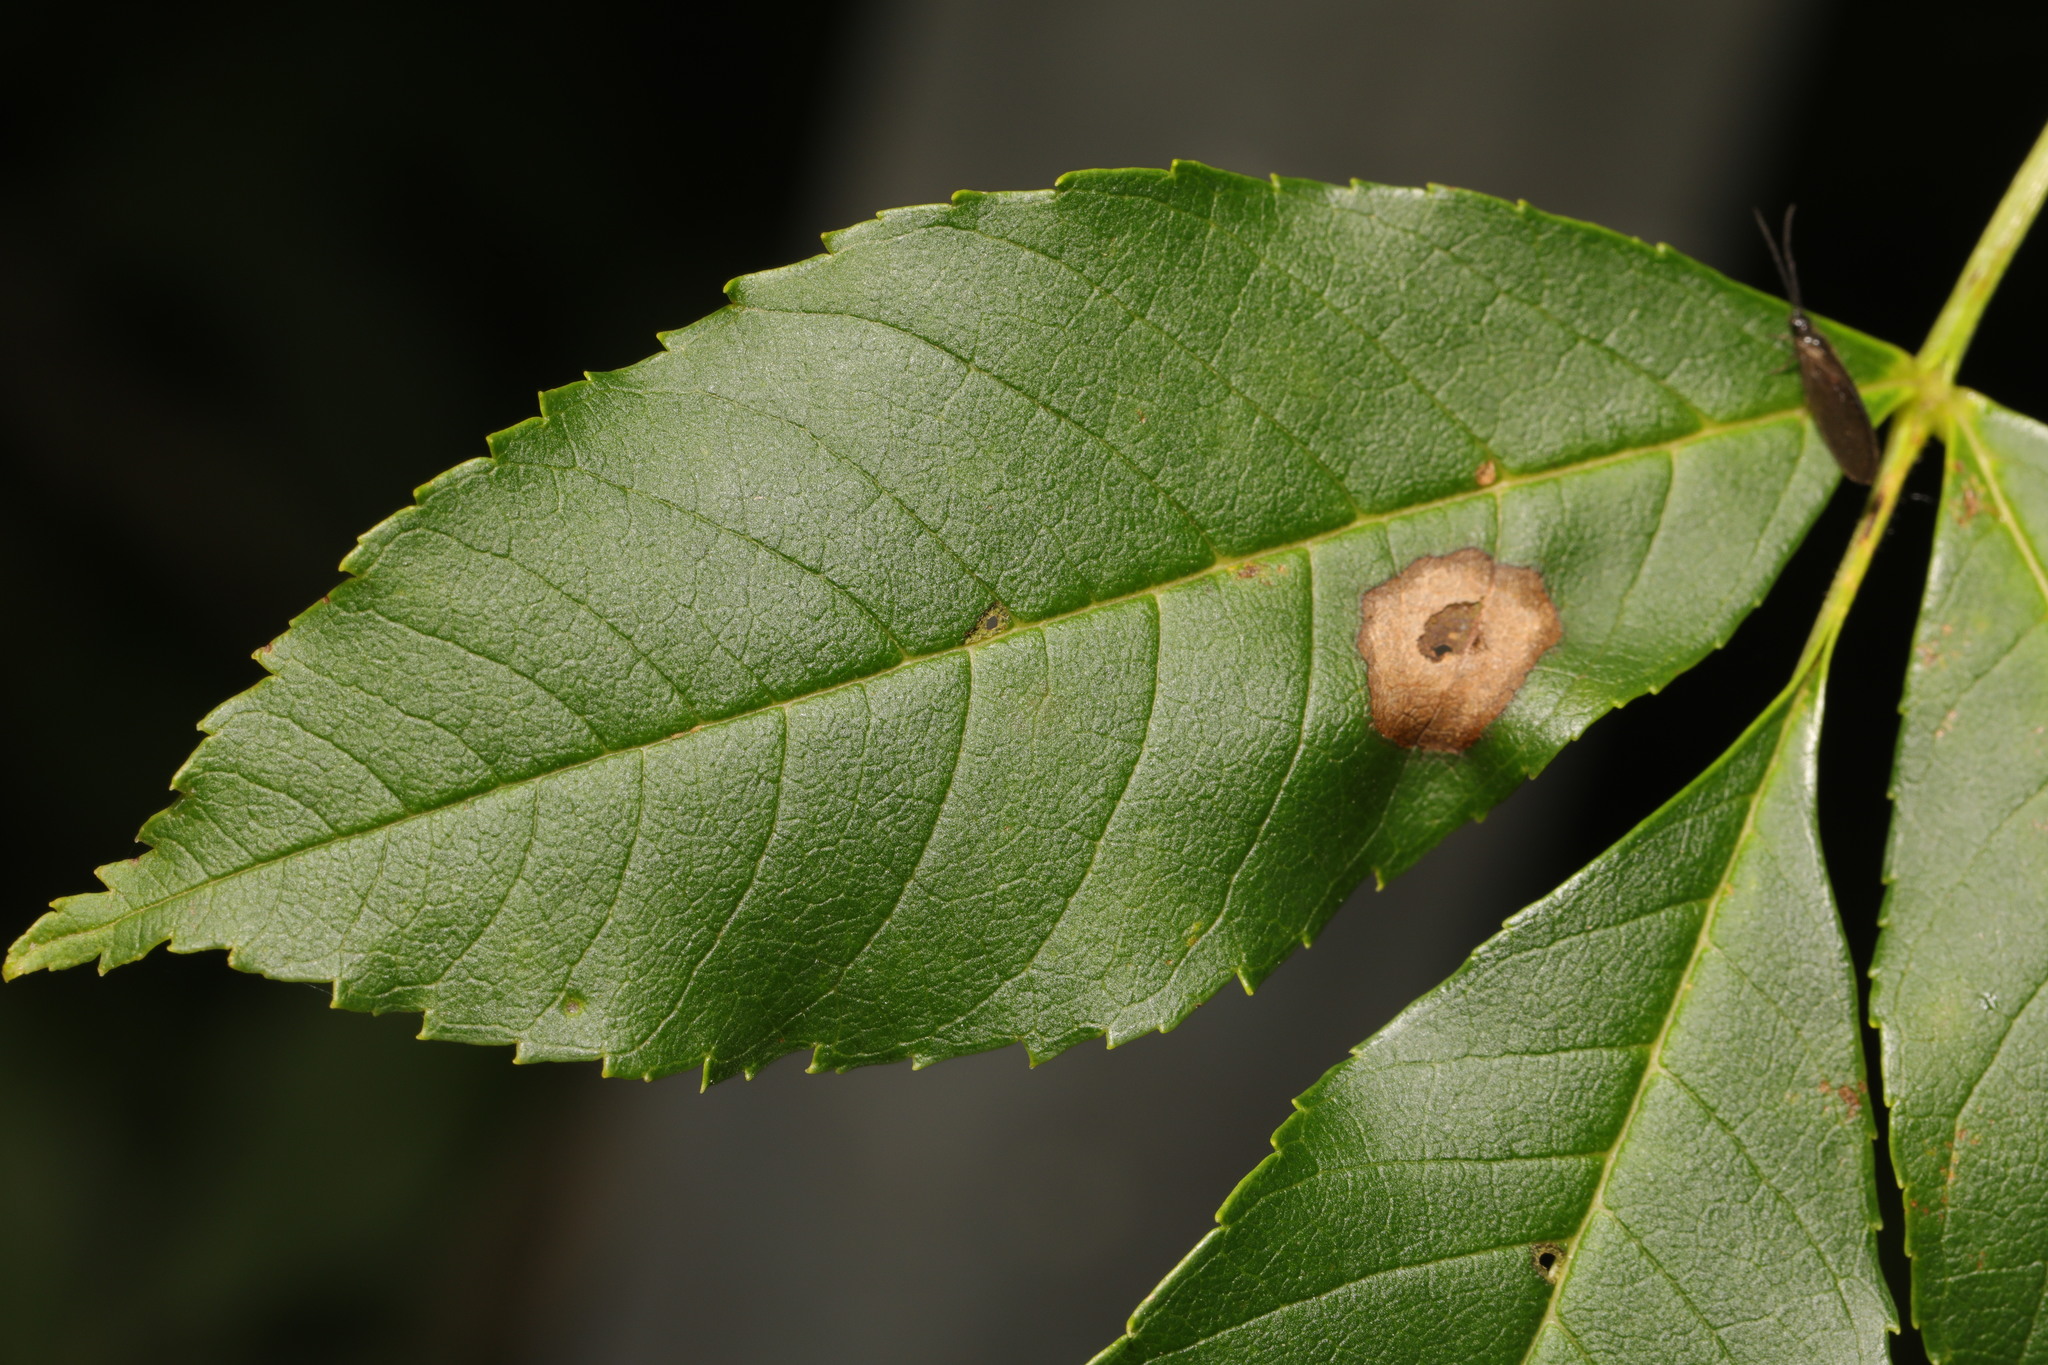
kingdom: Animalia
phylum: Arthropoda
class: Insecta
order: Diptera
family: Cecidomyiidae
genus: Dasineura
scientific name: Dasineura fraxinea
